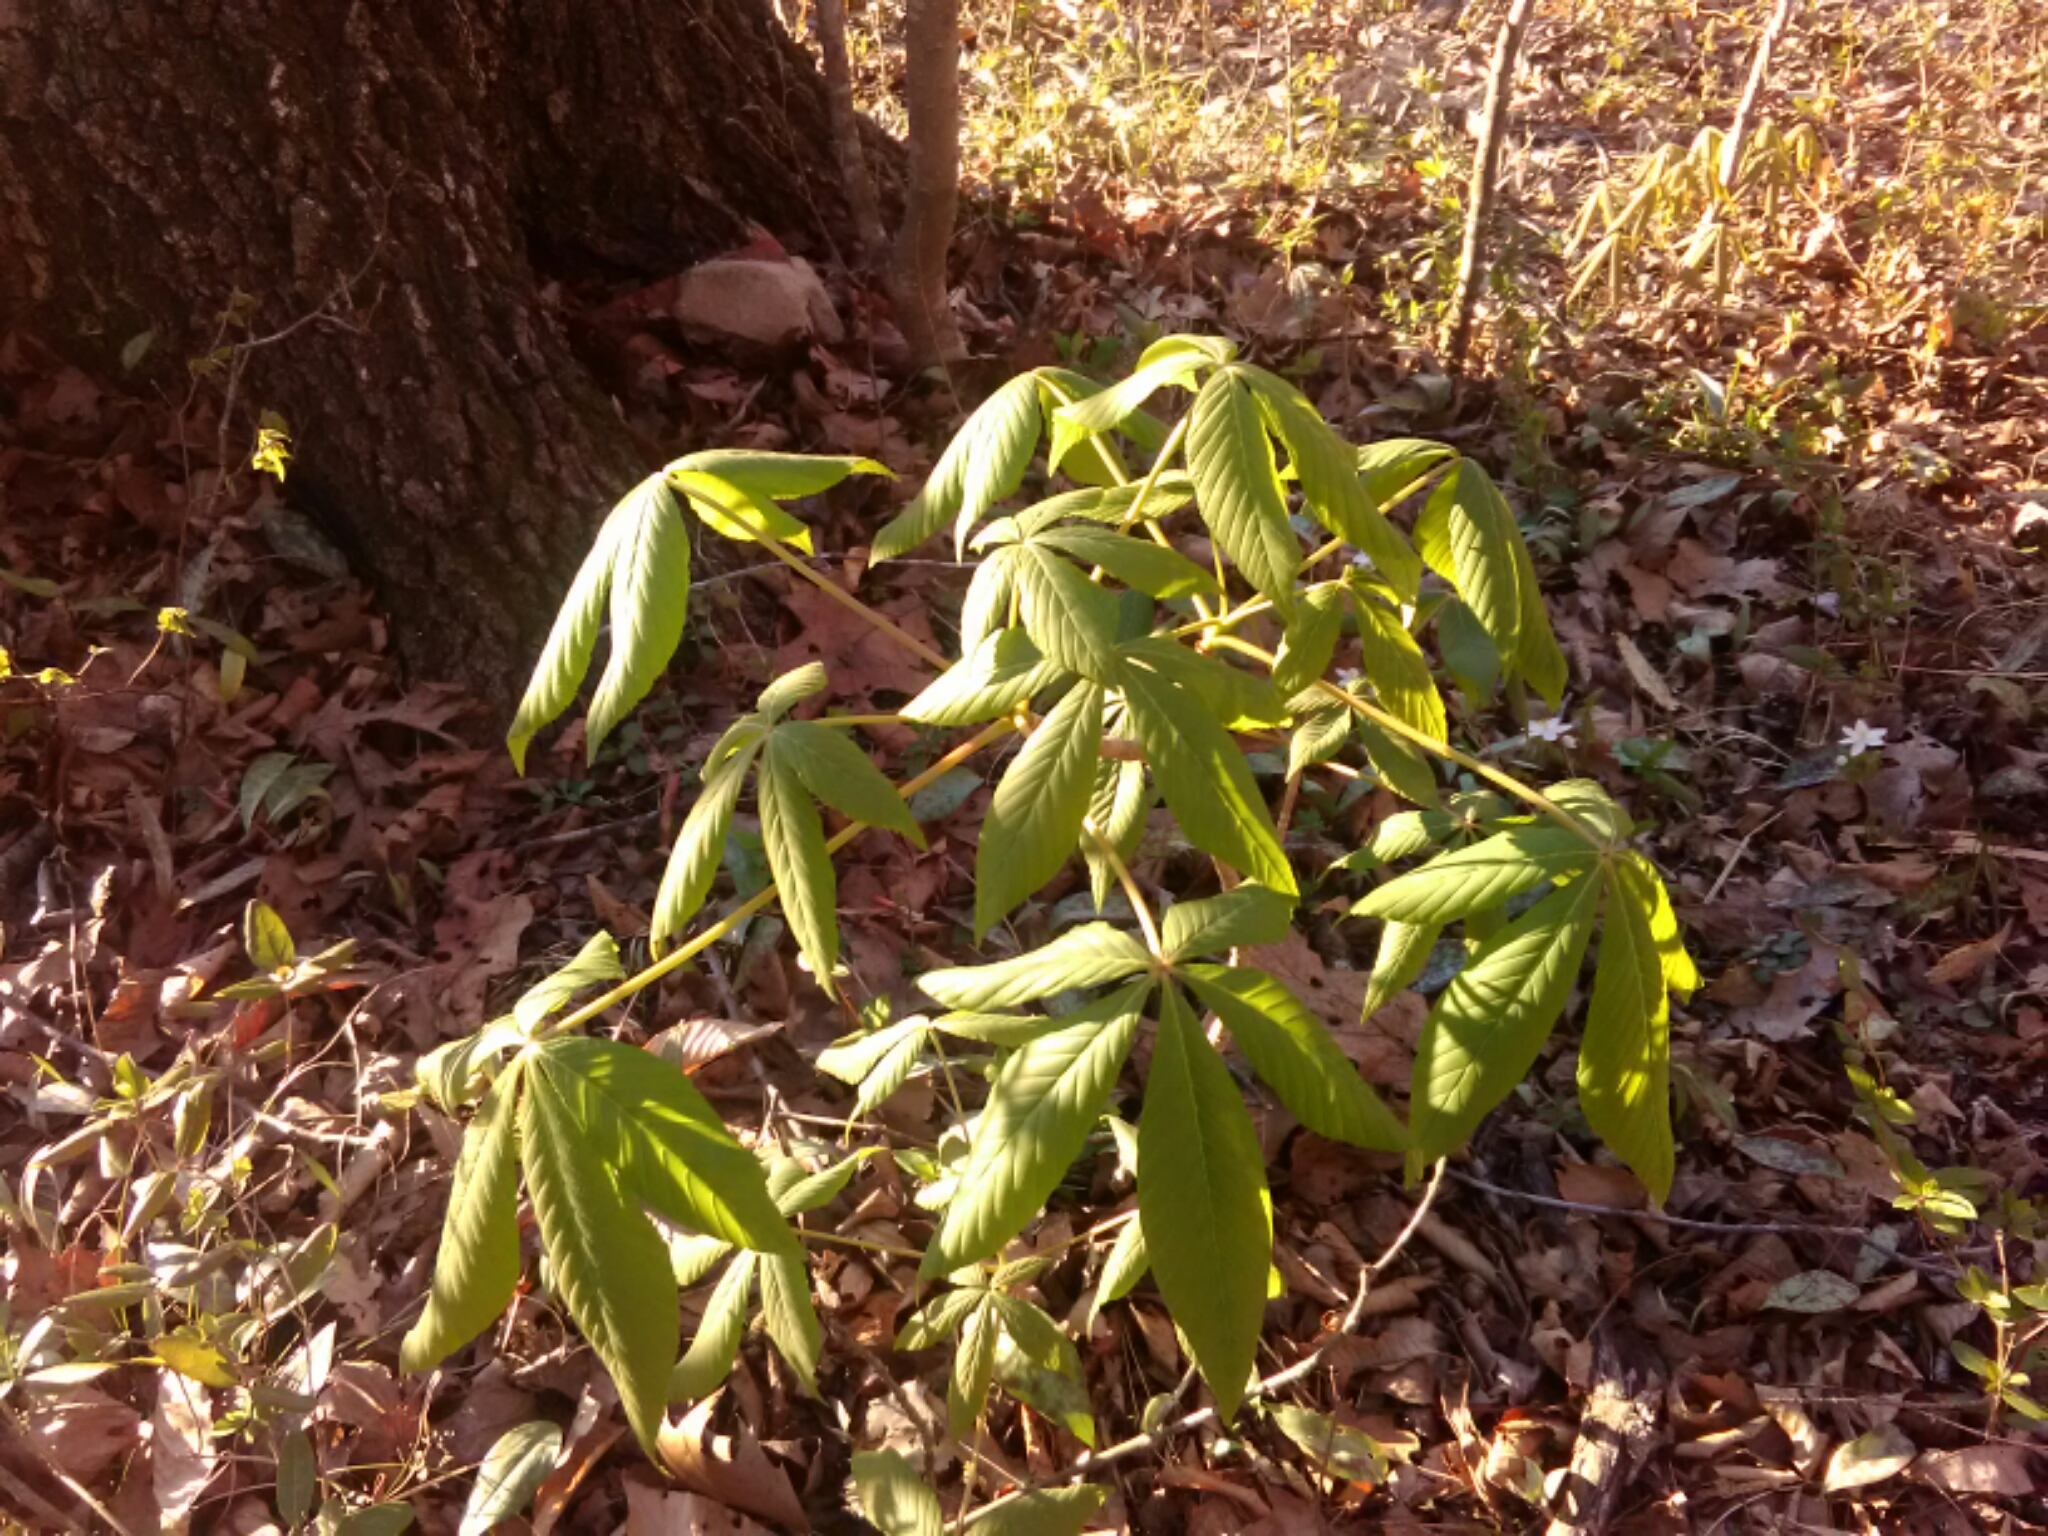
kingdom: Plantae
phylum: Tracheophyta
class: Magnoliopsida
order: Sapindales
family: Sapindaceae
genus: Aesculus
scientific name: Aesculus sylvatica
